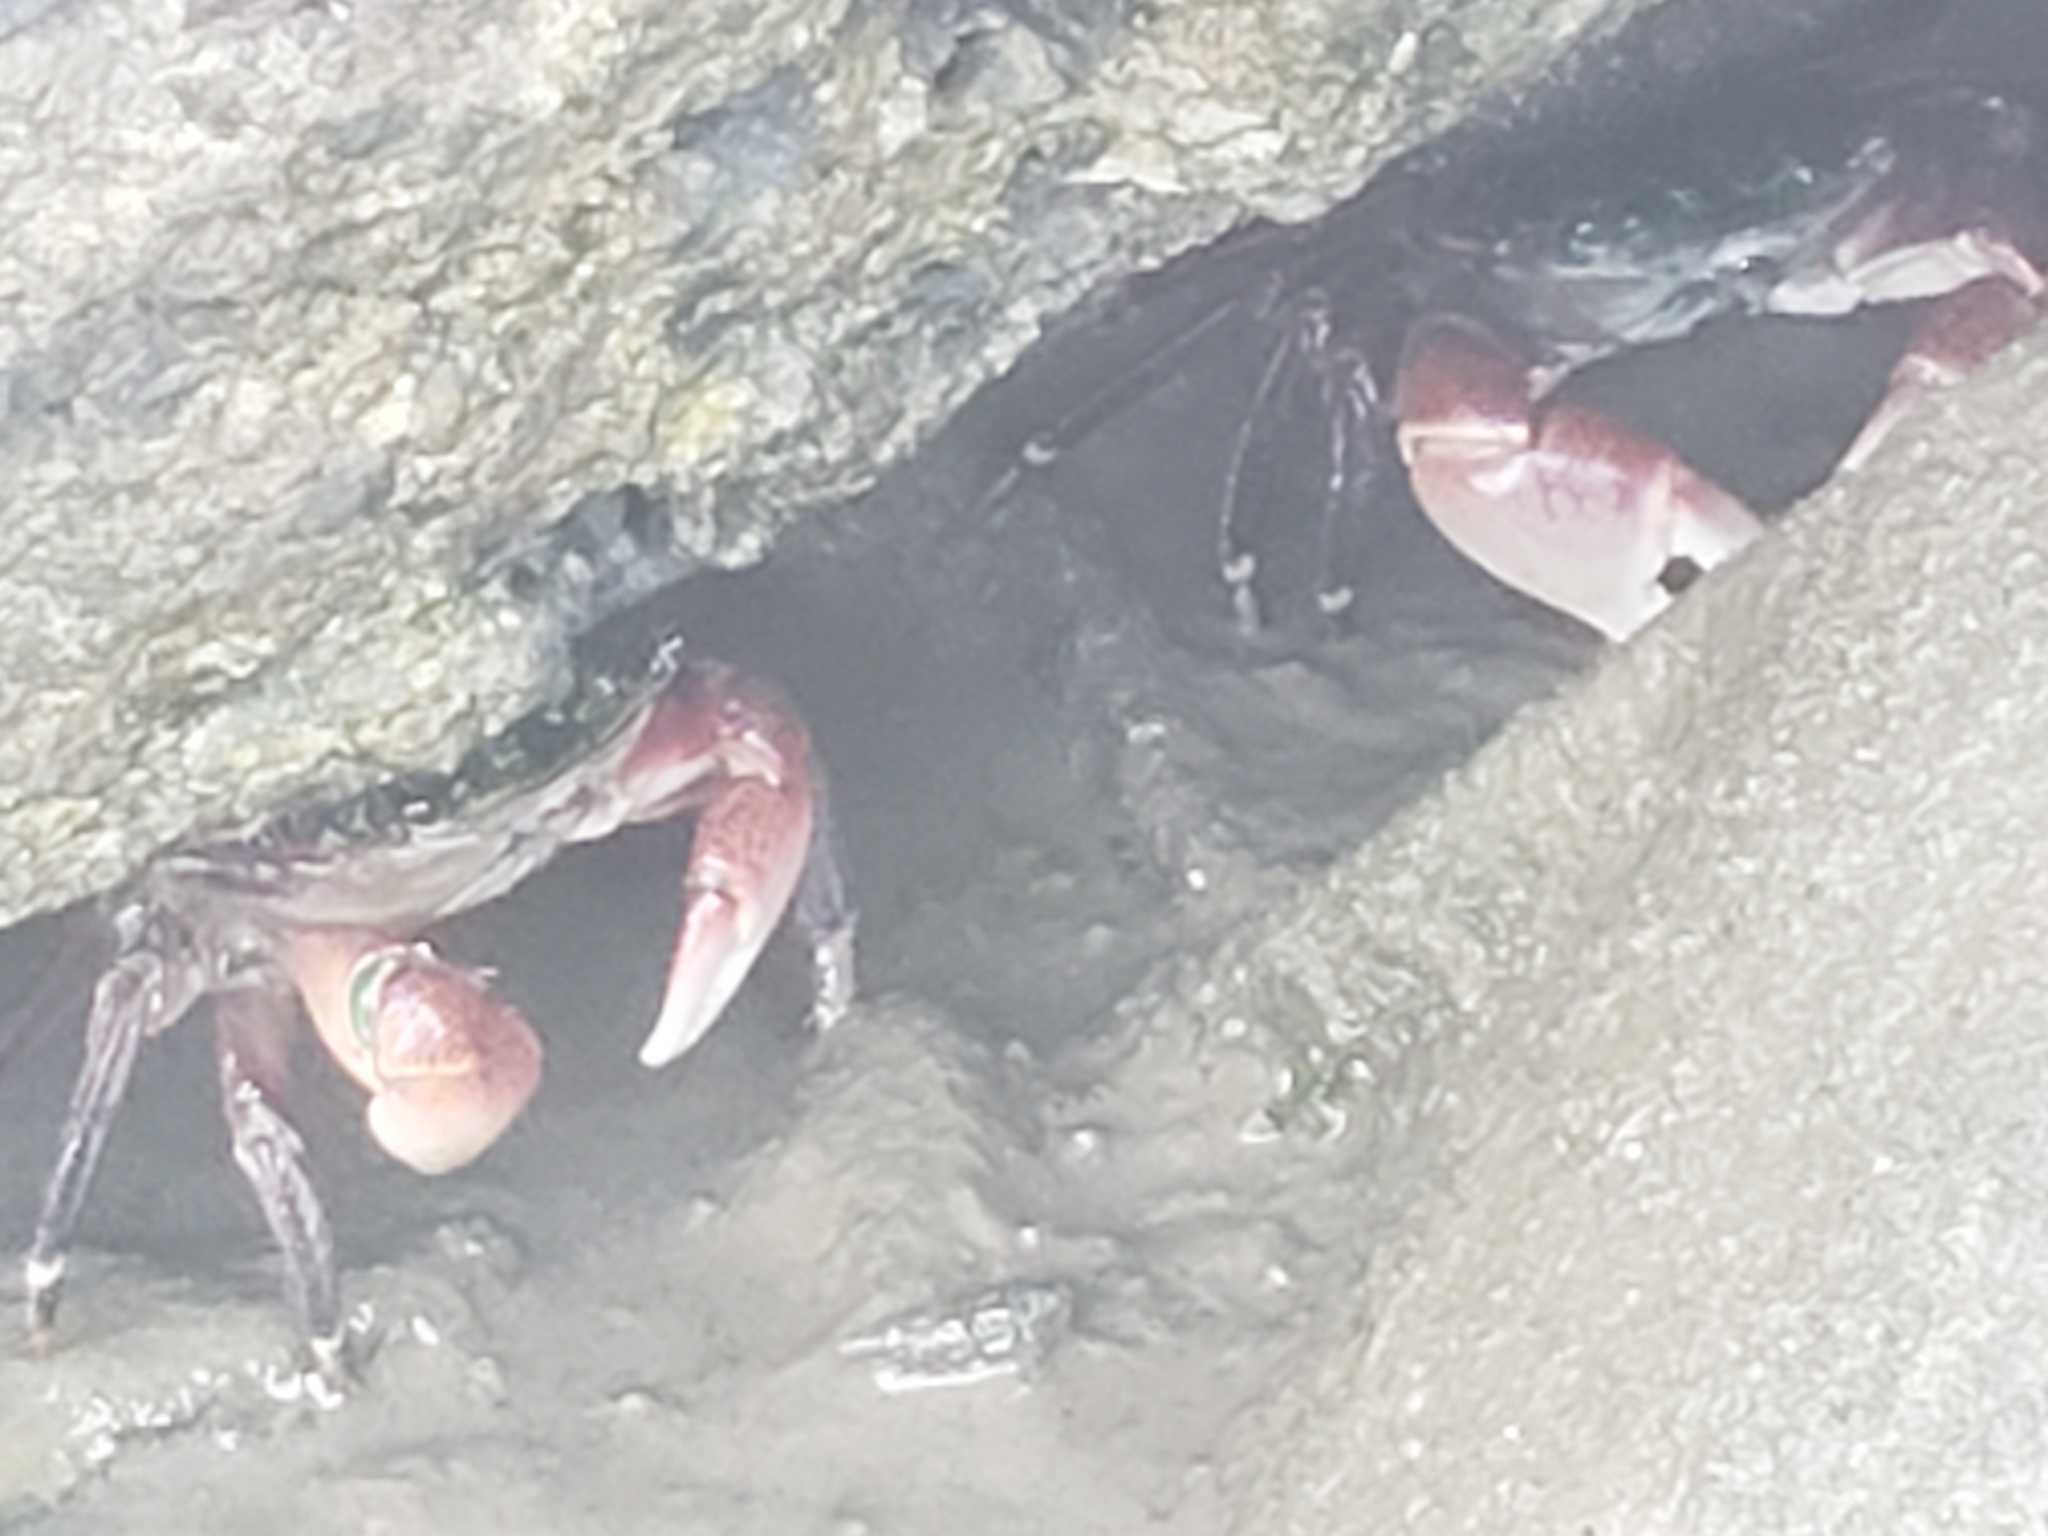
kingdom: Animalia
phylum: Arthropoda
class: Malacostraca
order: Decapoda
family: Grapsidae
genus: Pachygrapsus
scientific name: Pachygrapsus crassipes
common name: Striped shore crab
